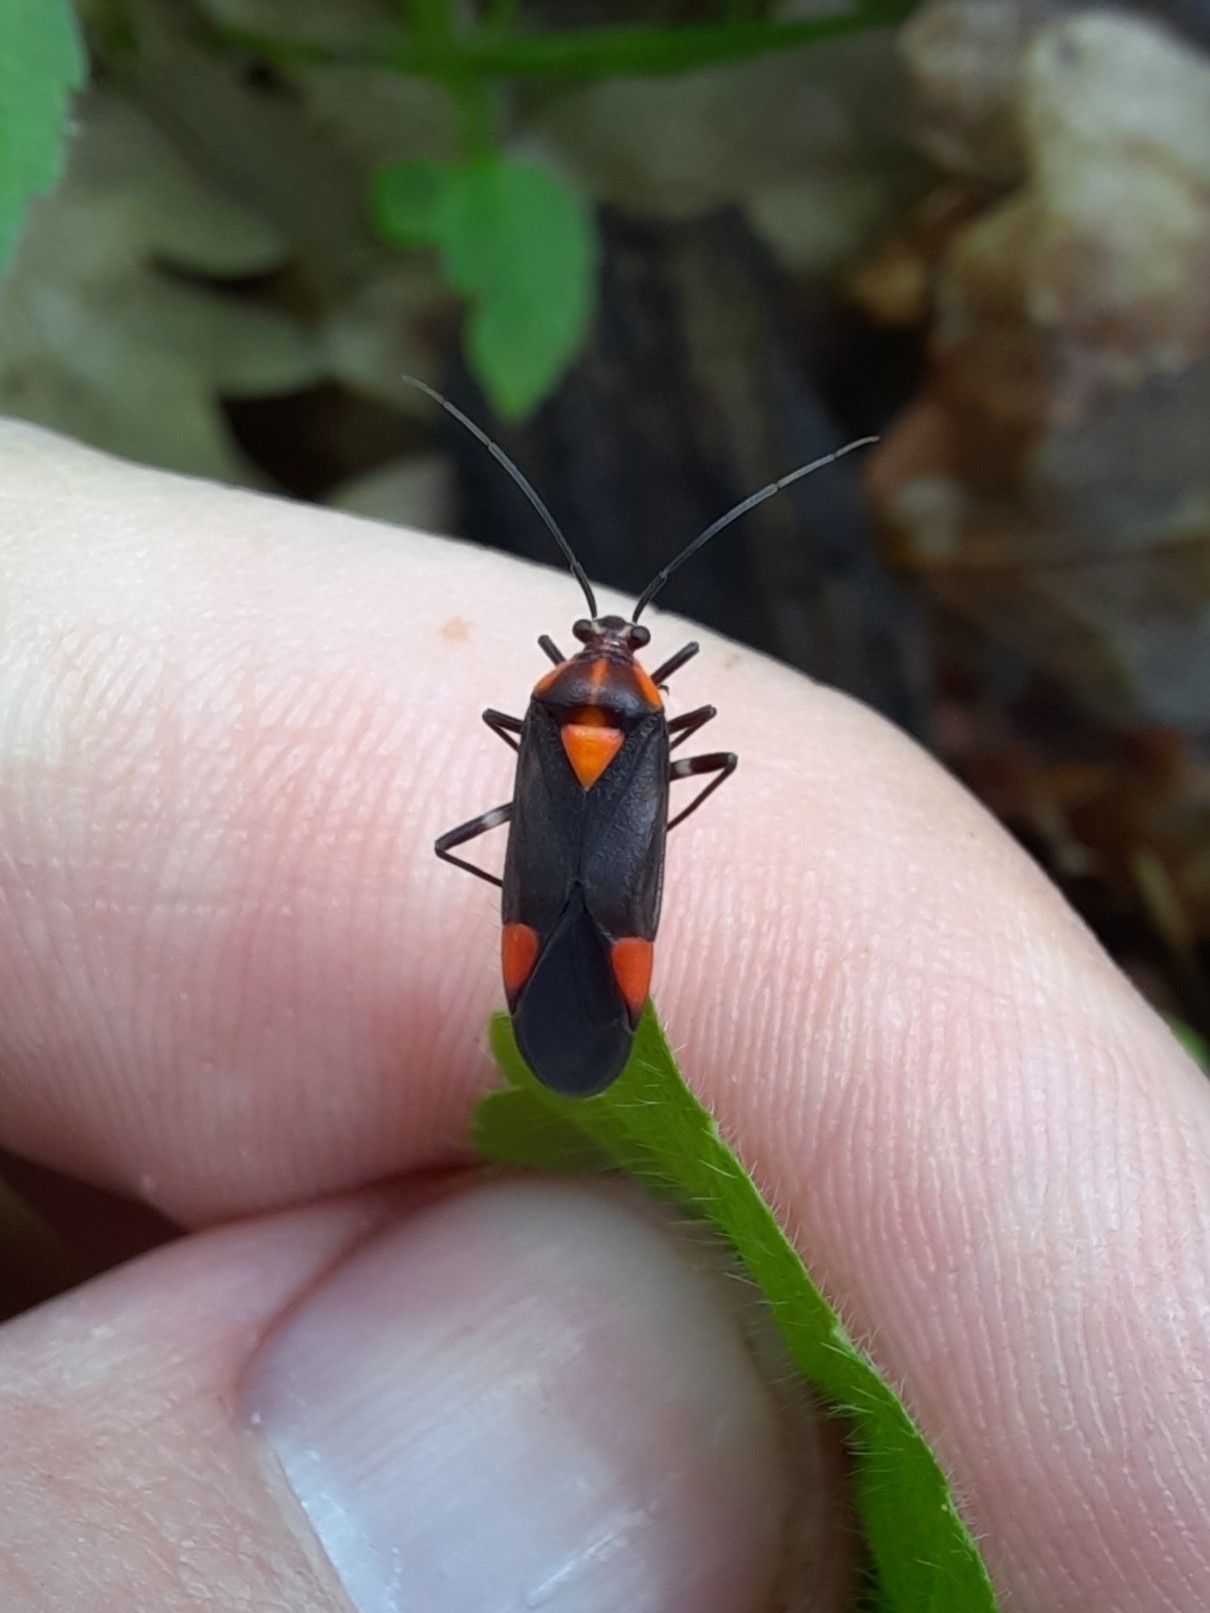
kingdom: Animalia
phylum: Arthropoda
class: Insecta
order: Hemiptera
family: Miridae
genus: Capsodes
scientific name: Capsodes mat
